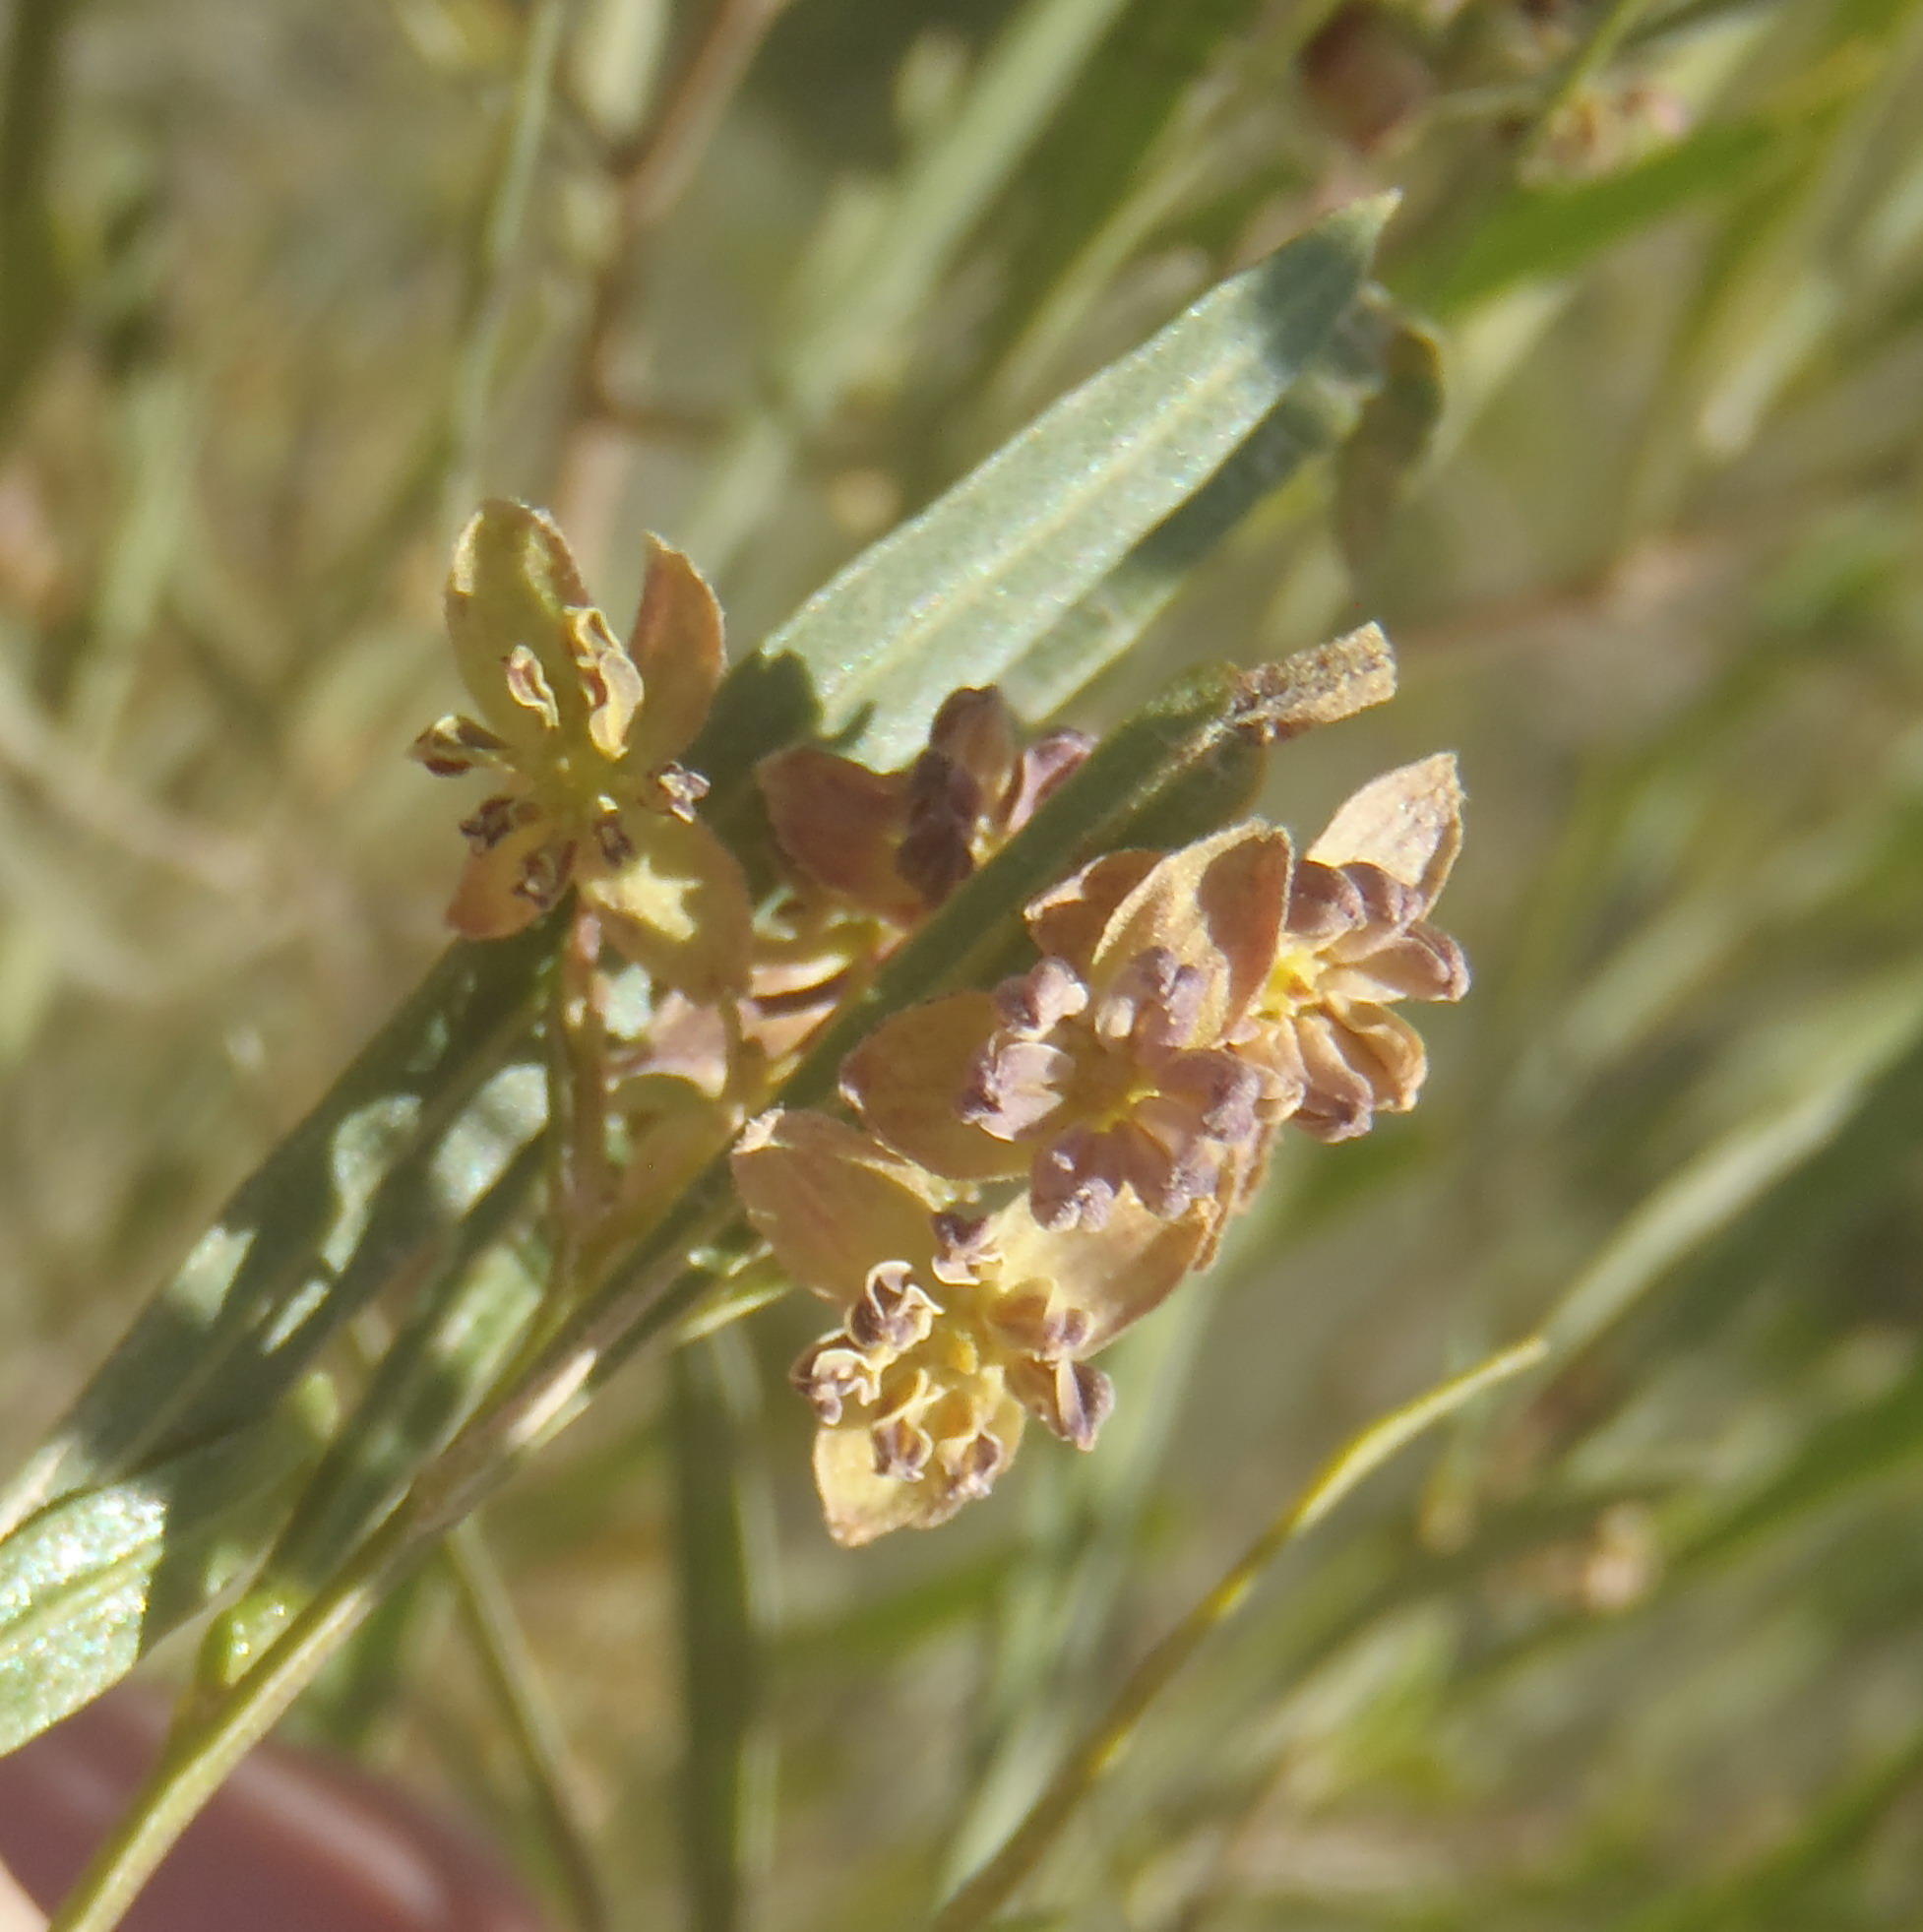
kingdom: Plantae
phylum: Tracheophyta
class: Magnoliopsida
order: Sapindales
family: Sapindaceae
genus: Dodonaea
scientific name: Dodonaea viscosa
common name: Hopbush
